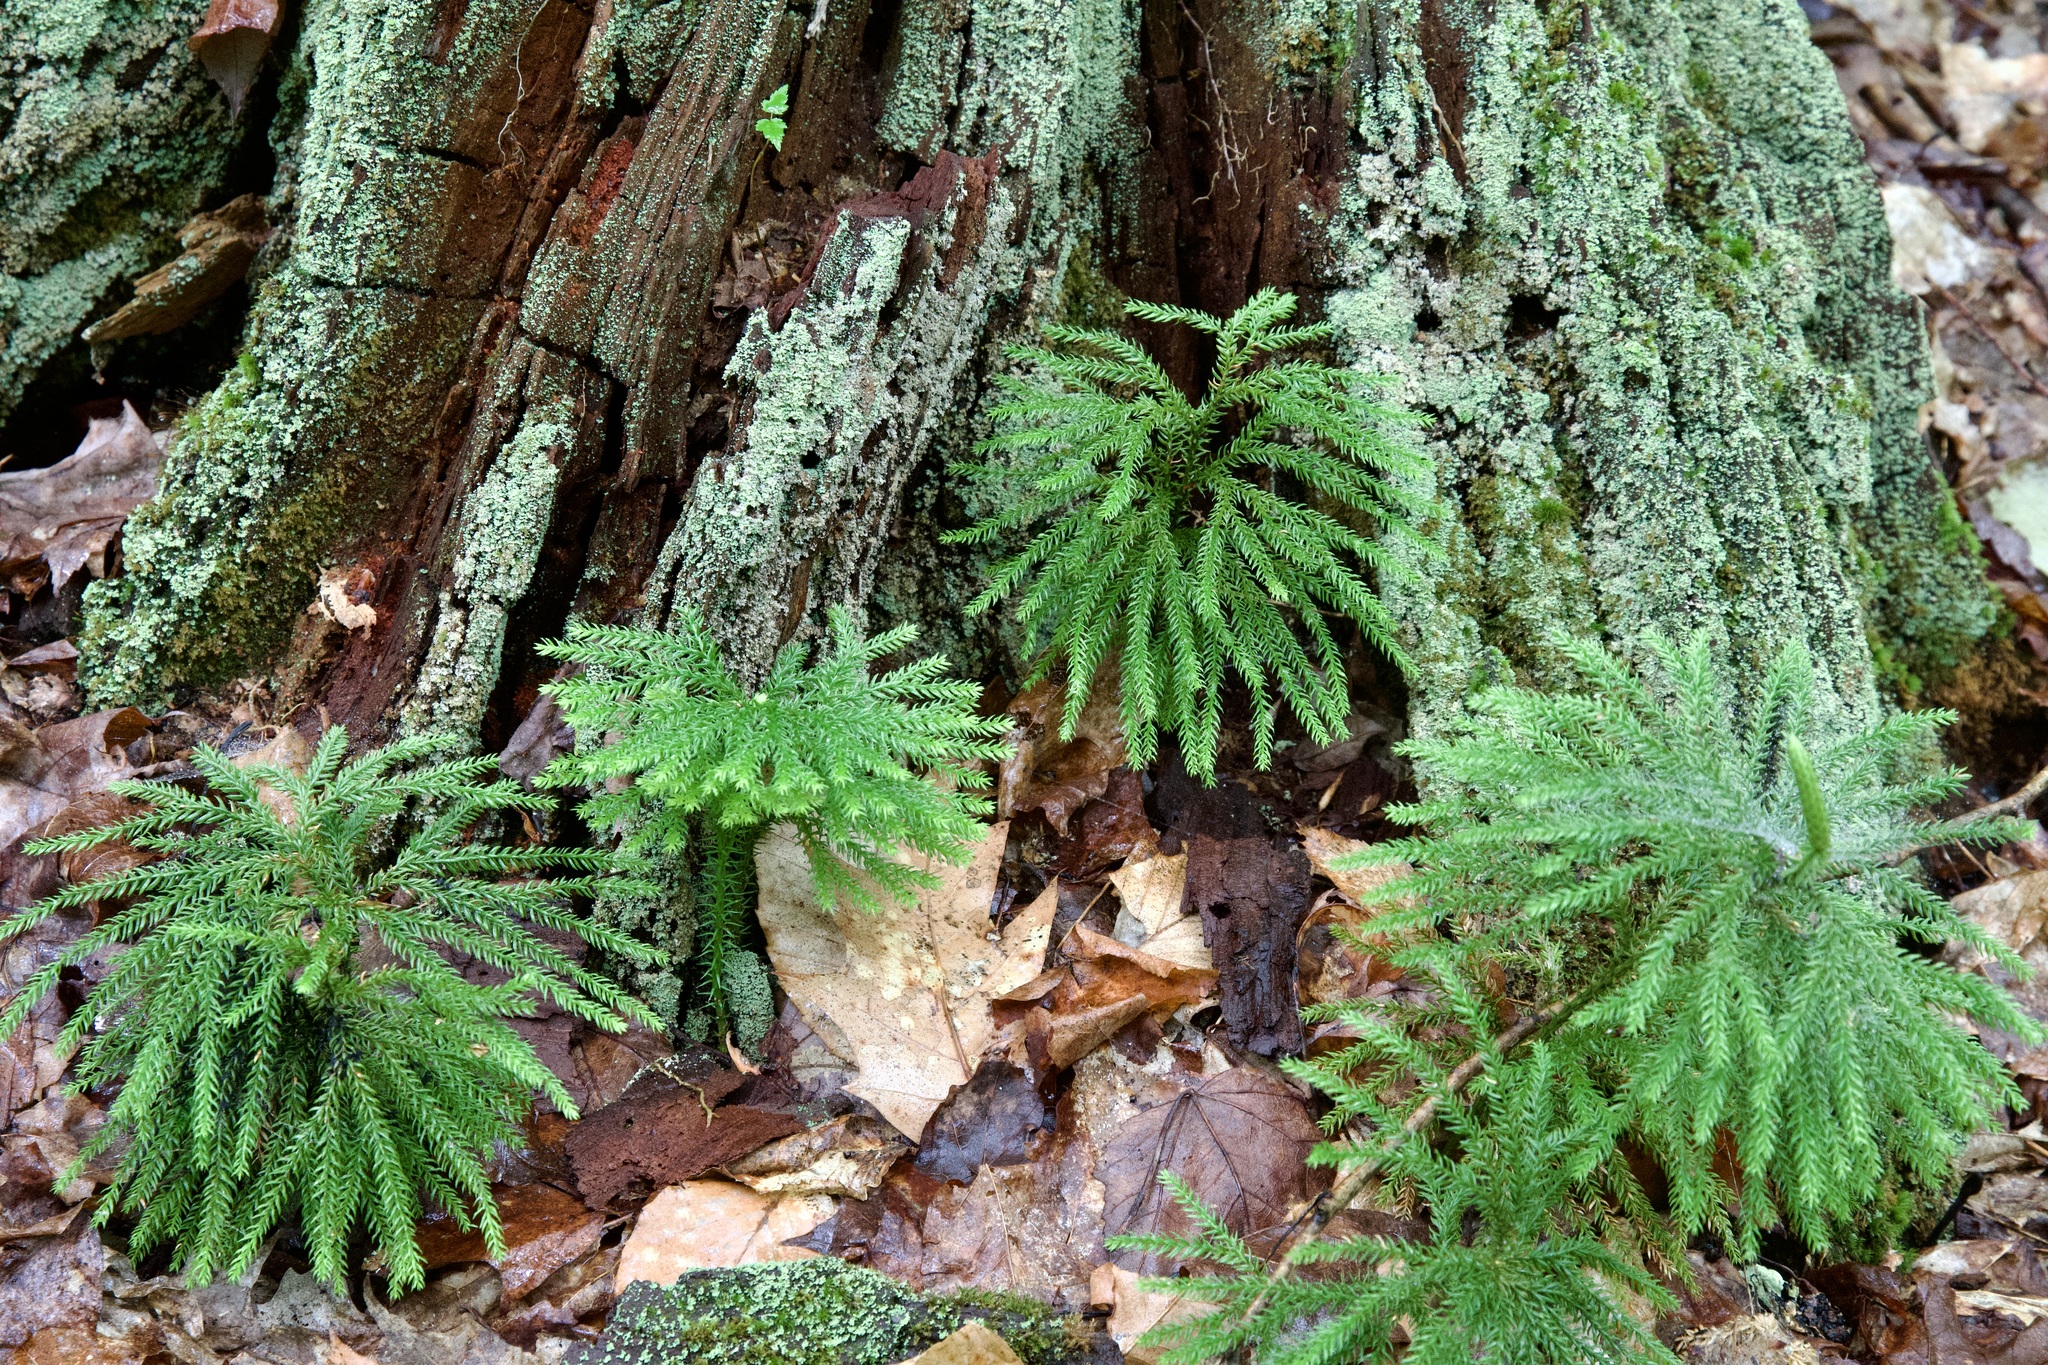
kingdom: Plantae
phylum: Tracheophyta
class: Lycopodiopsida
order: Lycopodiales
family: Lycopodiaceae
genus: Dendrolycopodium
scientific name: Dendrolycopodium obscurum
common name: Common ground-pine
